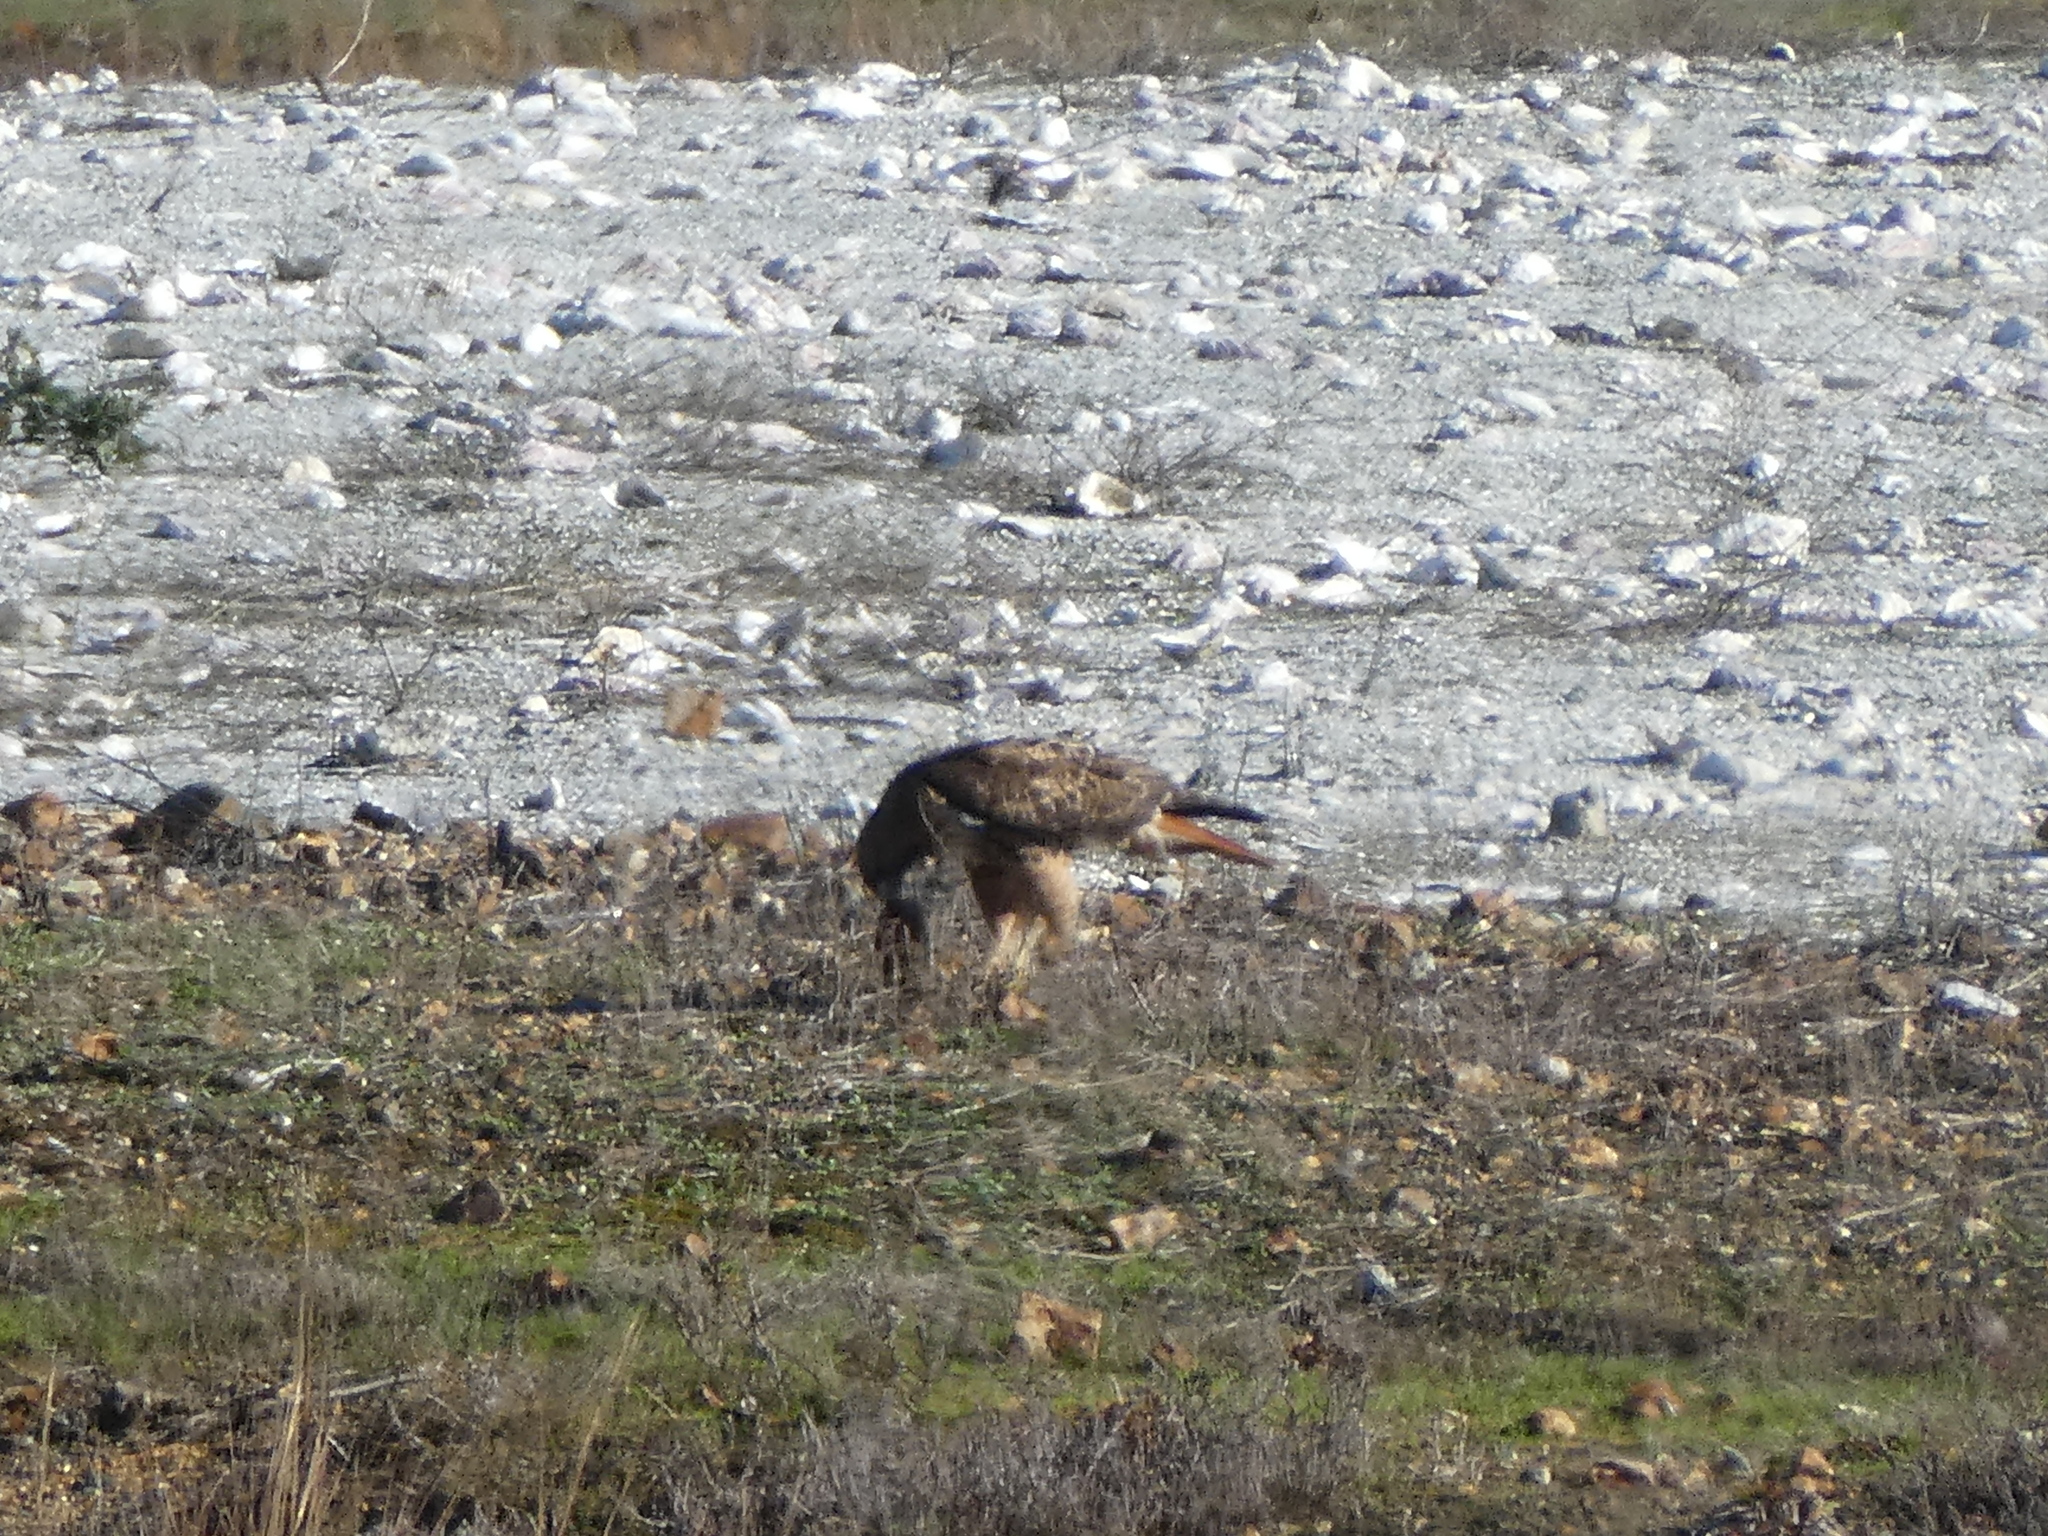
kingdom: Animalia
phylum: Chordata
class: Aves
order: Accipitriformes
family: Accipitridae
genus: Buteo
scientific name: Buteo jamaicensis
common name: Red-tailed hawk
